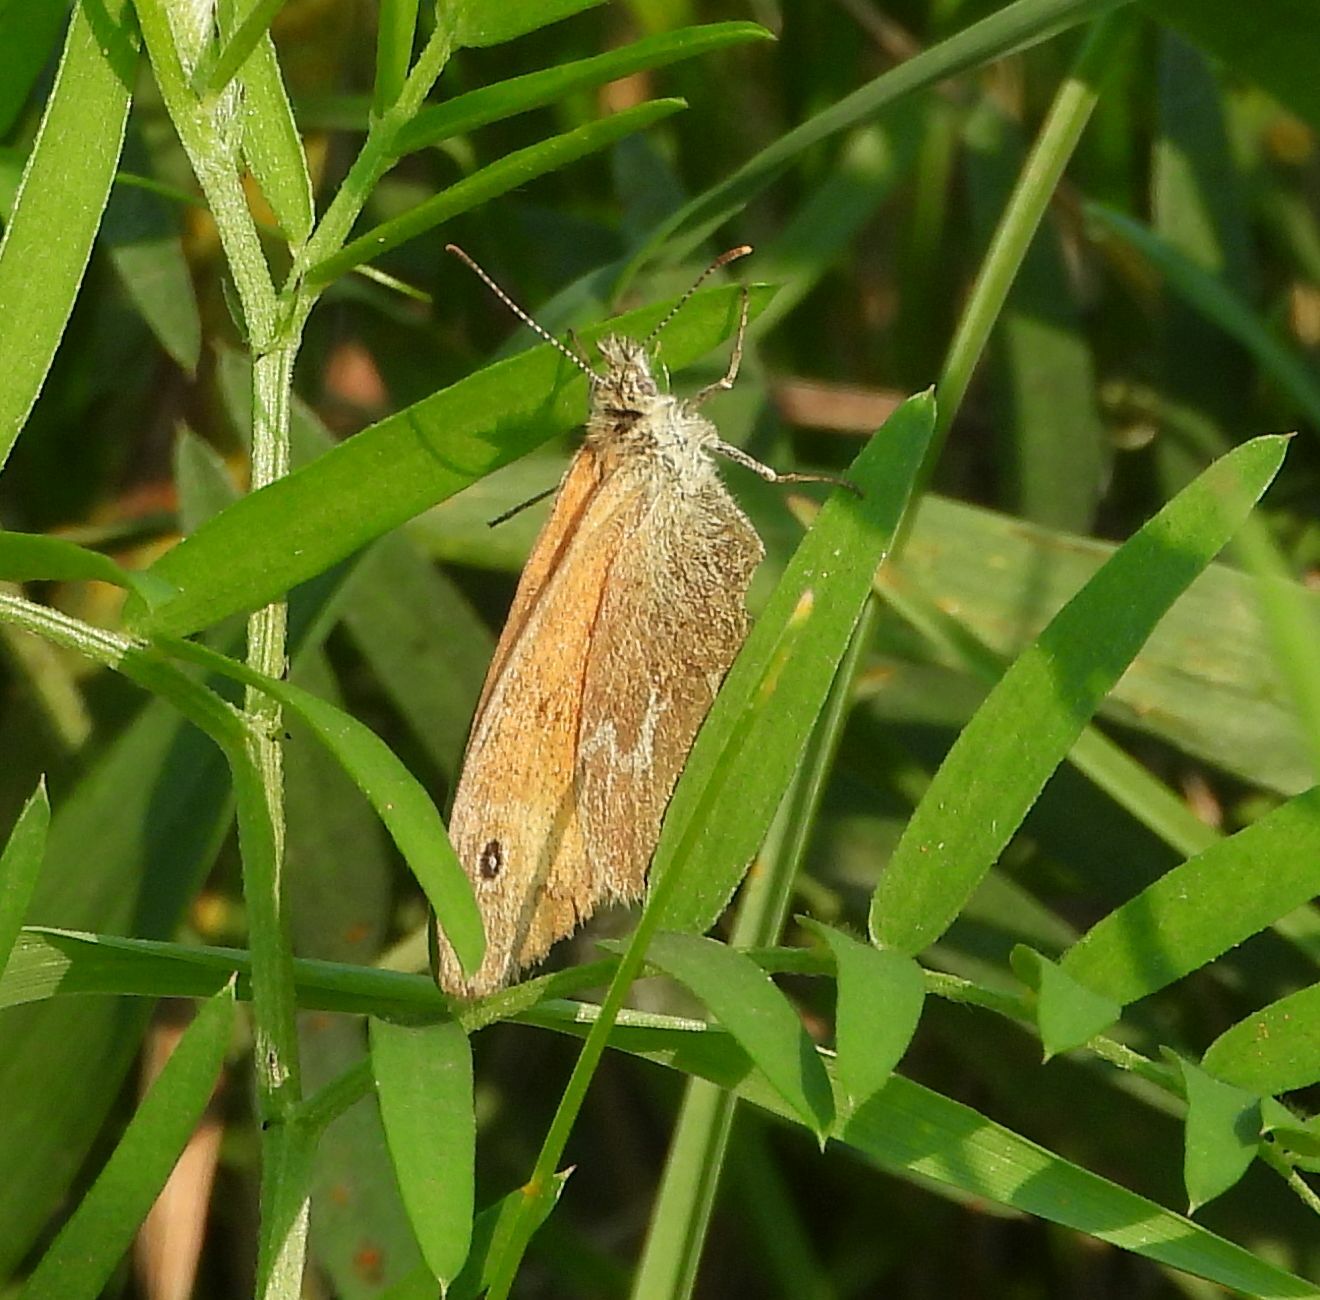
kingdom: Animalia
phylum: Arthropoda
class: Insecta
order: Lepidoptera
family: Nymphalidae
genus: Coenonympha
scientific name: Coenonympha california
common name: Common ringlet
